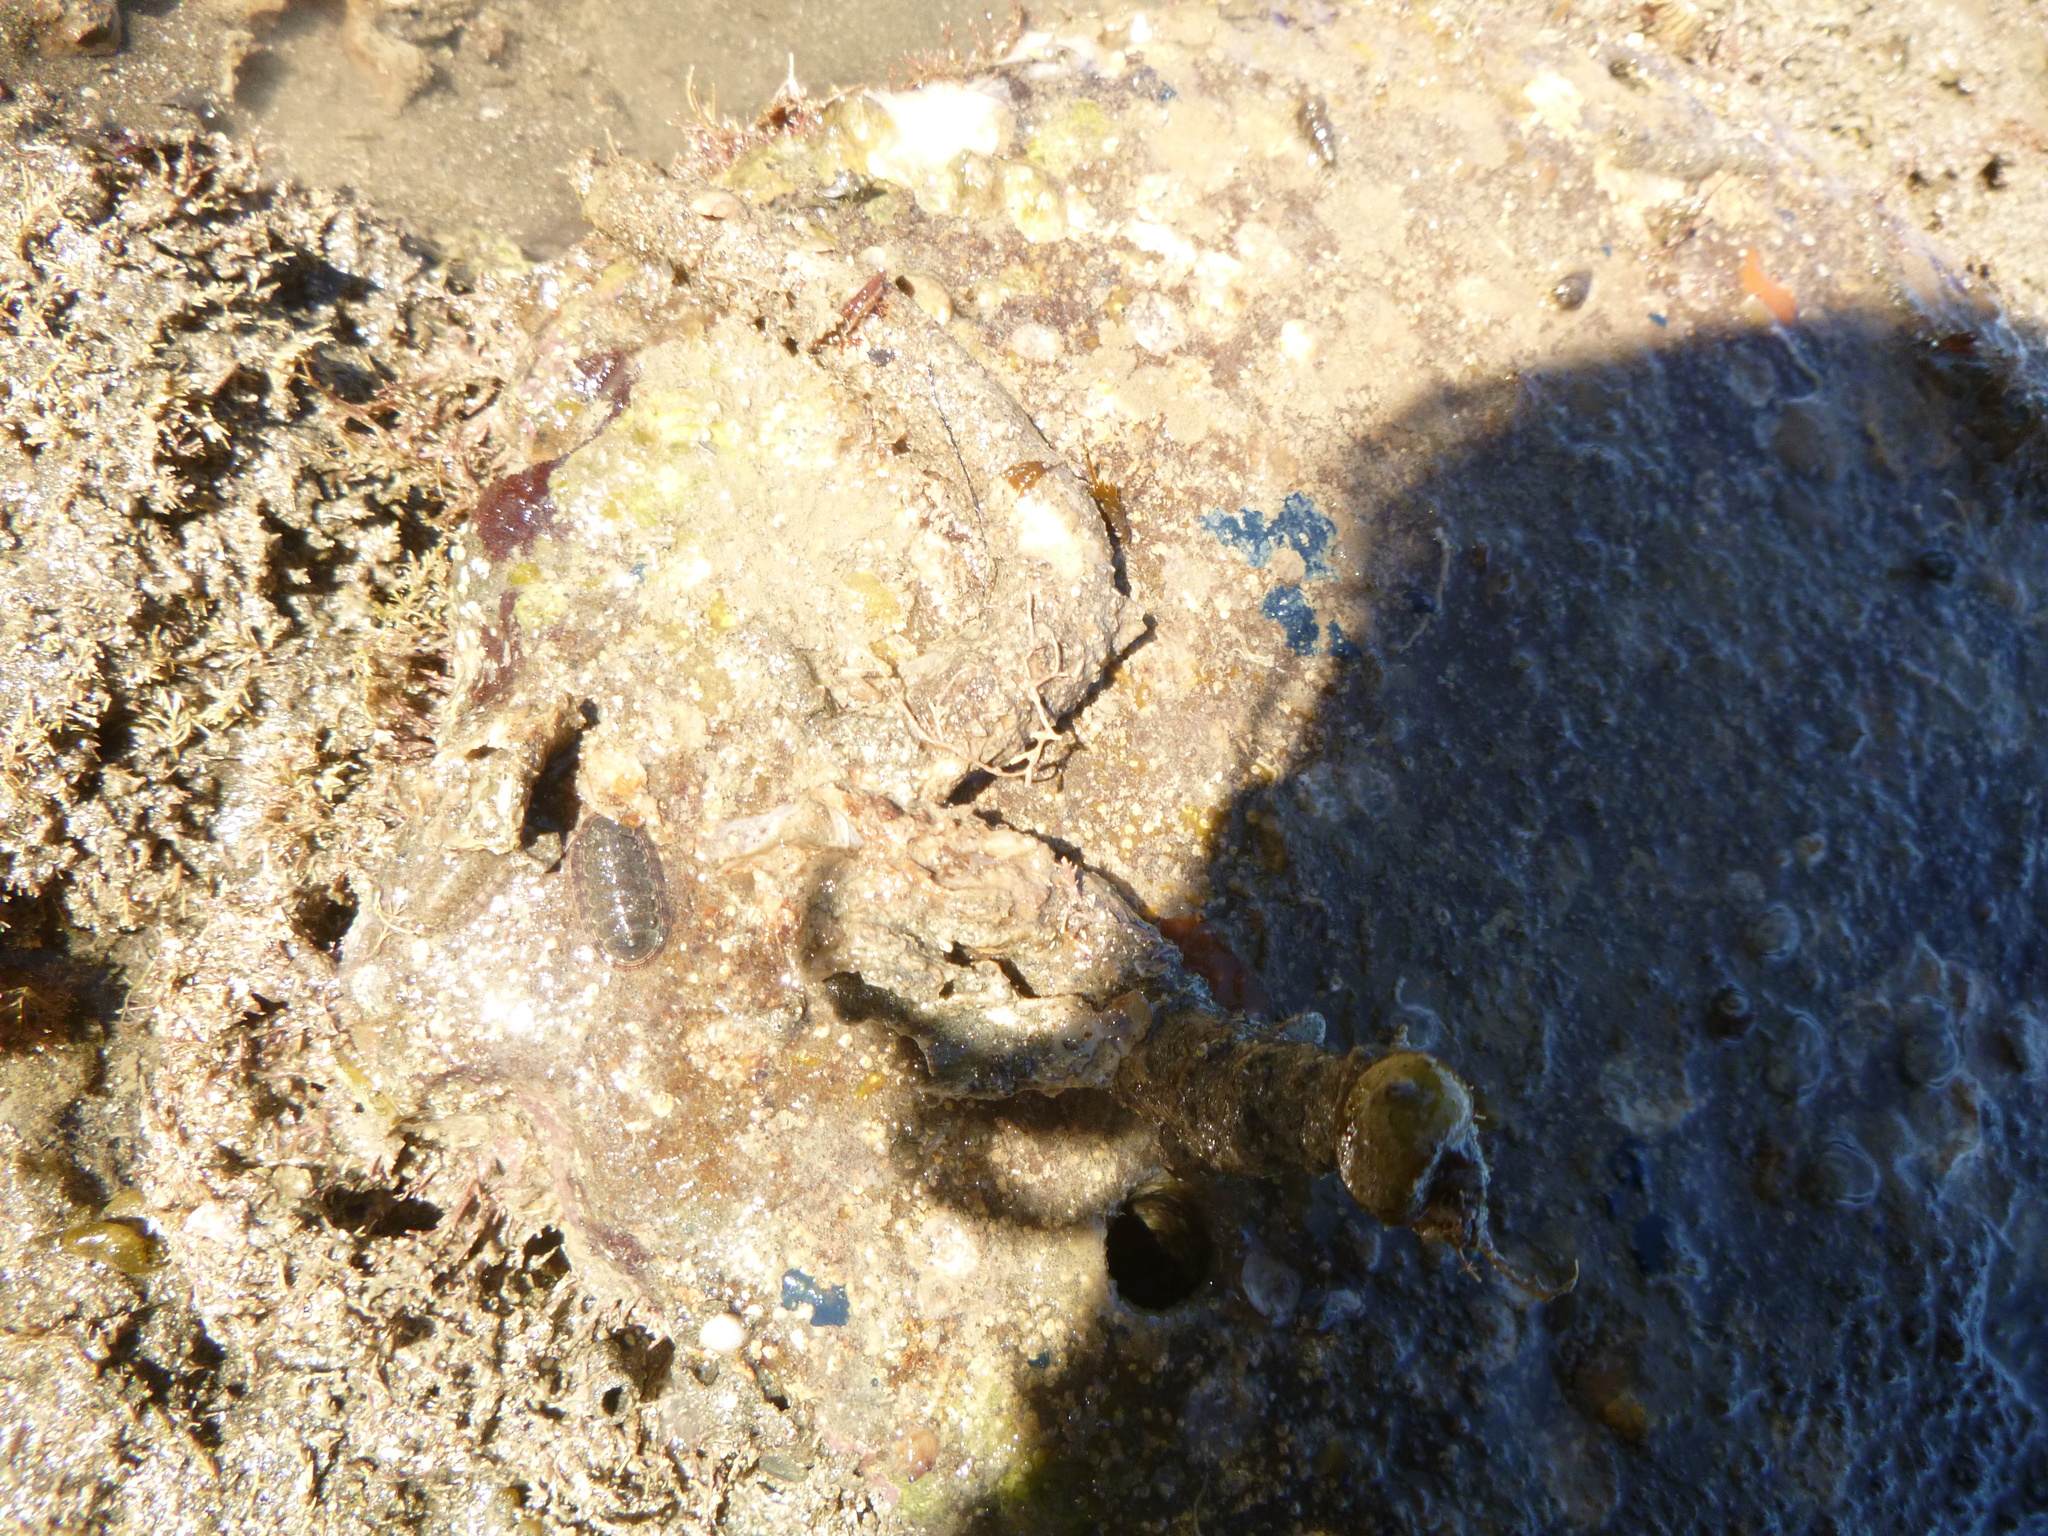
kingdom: Animalia
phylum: Mollusca
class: Polyplacophora
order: Chitonida
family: Ischnochitonidae
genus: Ischnochiton
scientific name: Ischnochiton maorianus
